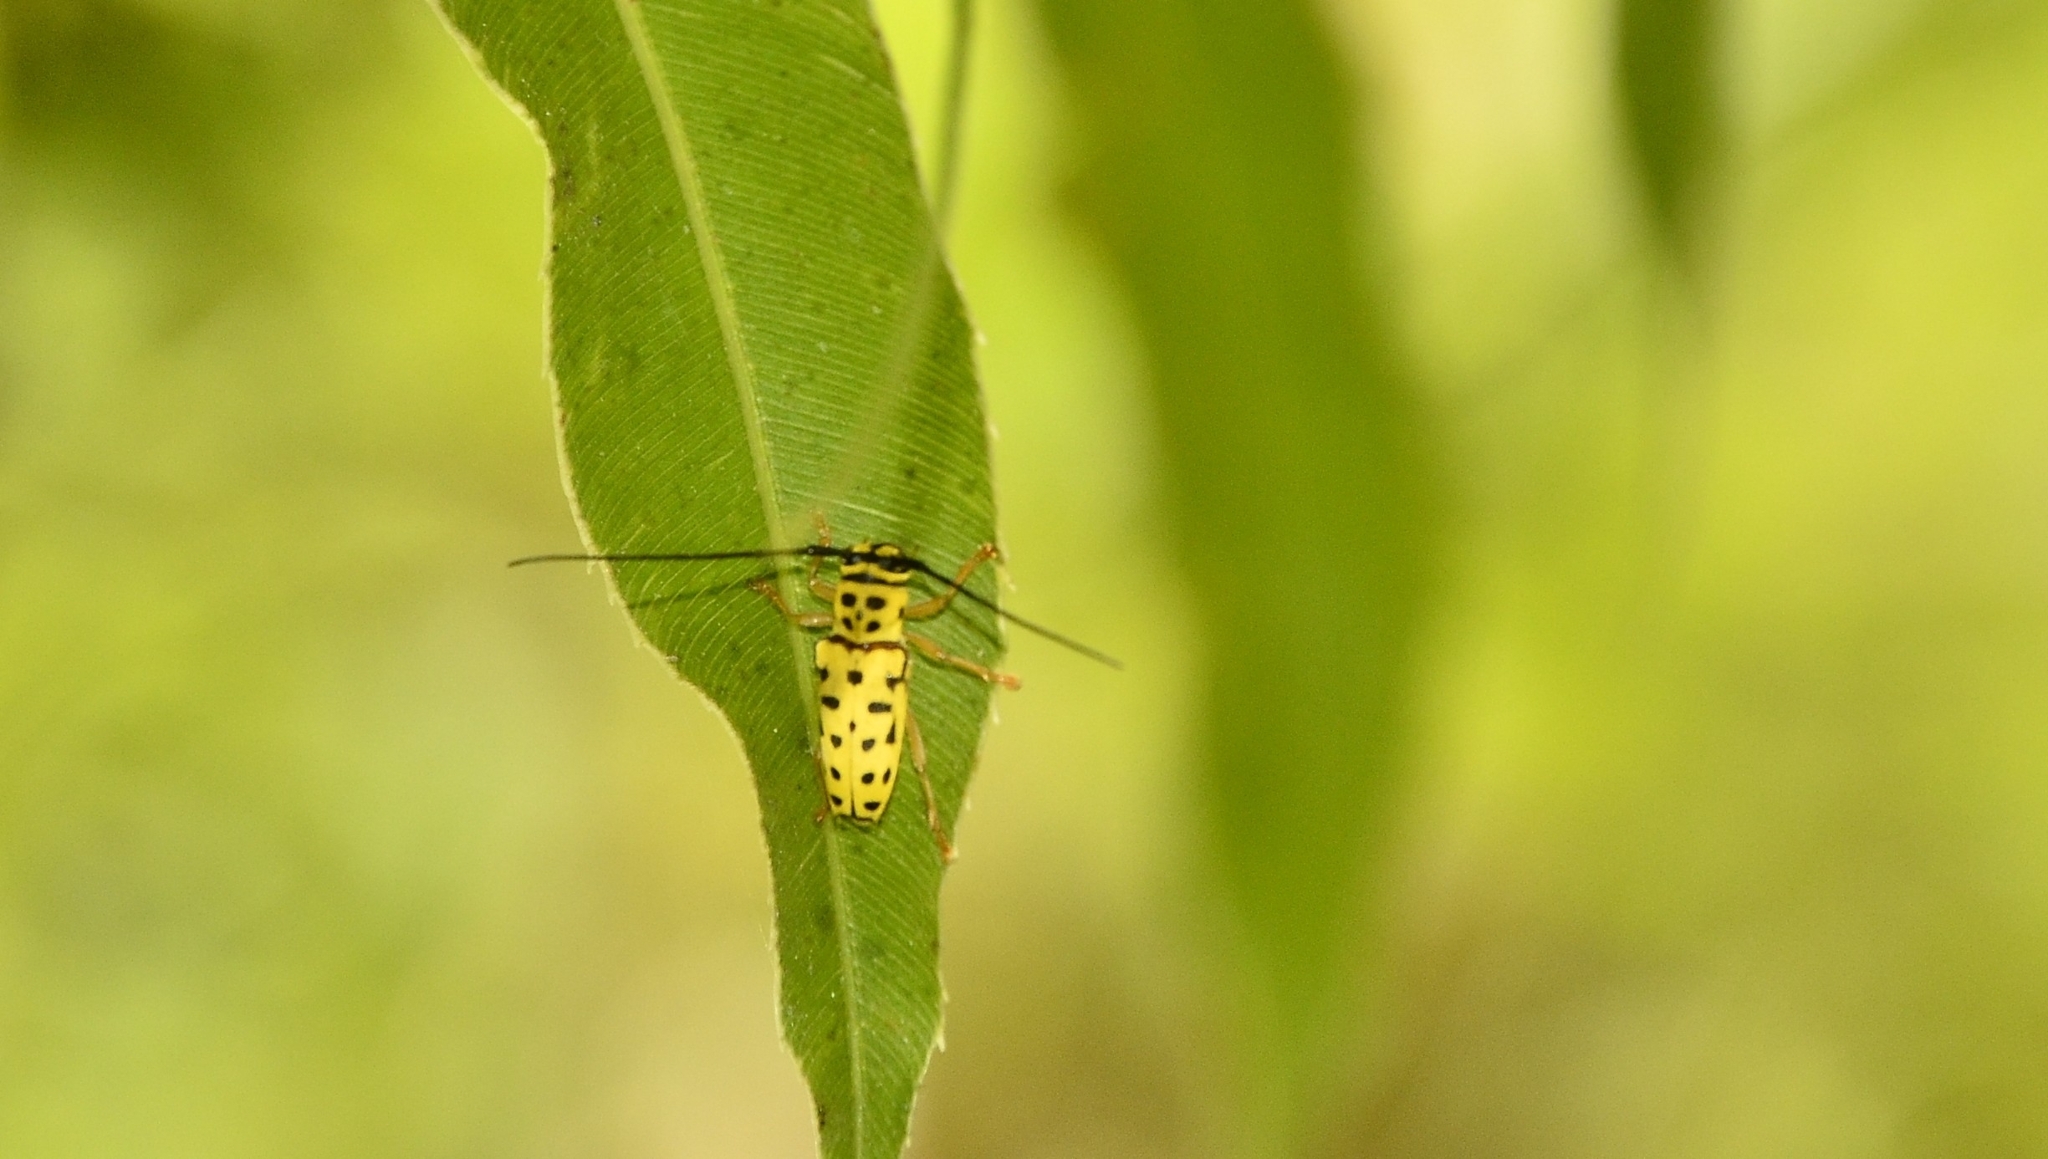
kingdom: Animalia
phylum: Arthropoda
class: Insecta
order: Coleoptera
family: Cerambycidae
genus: Glenea
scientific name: Glenea multiguttata
